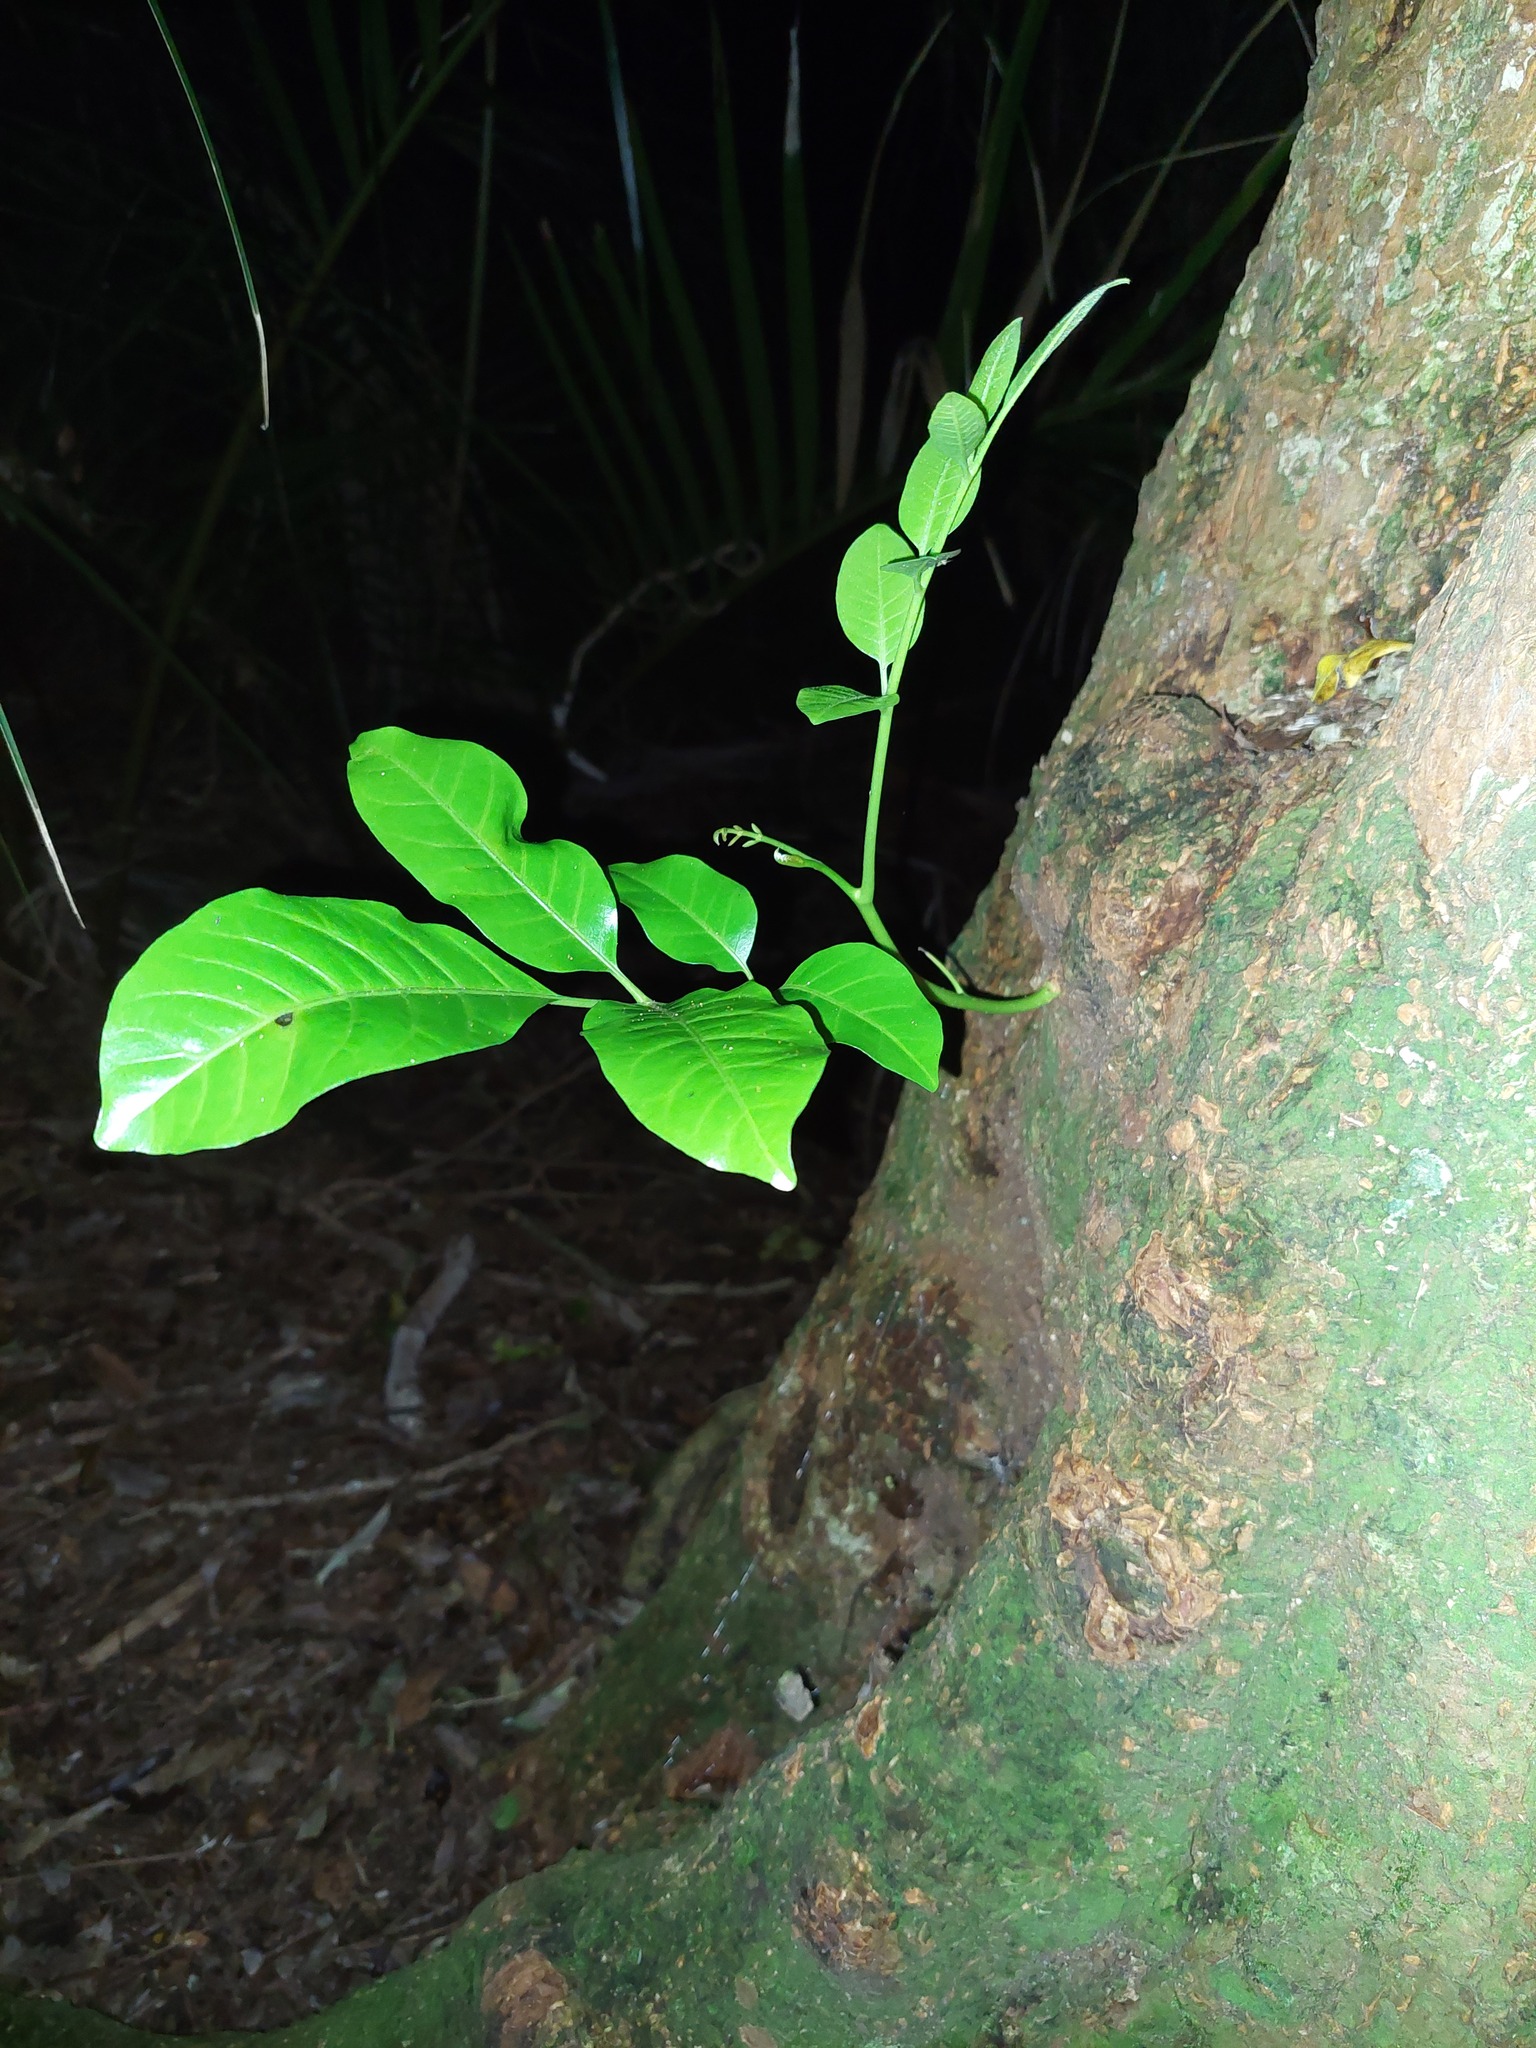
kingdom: Plantae
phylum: Tracheophyta
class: Magnoliopsida
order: Sapindales
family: Meliaceae
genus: Didymocheton
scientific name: Didymocheton spectabilis
